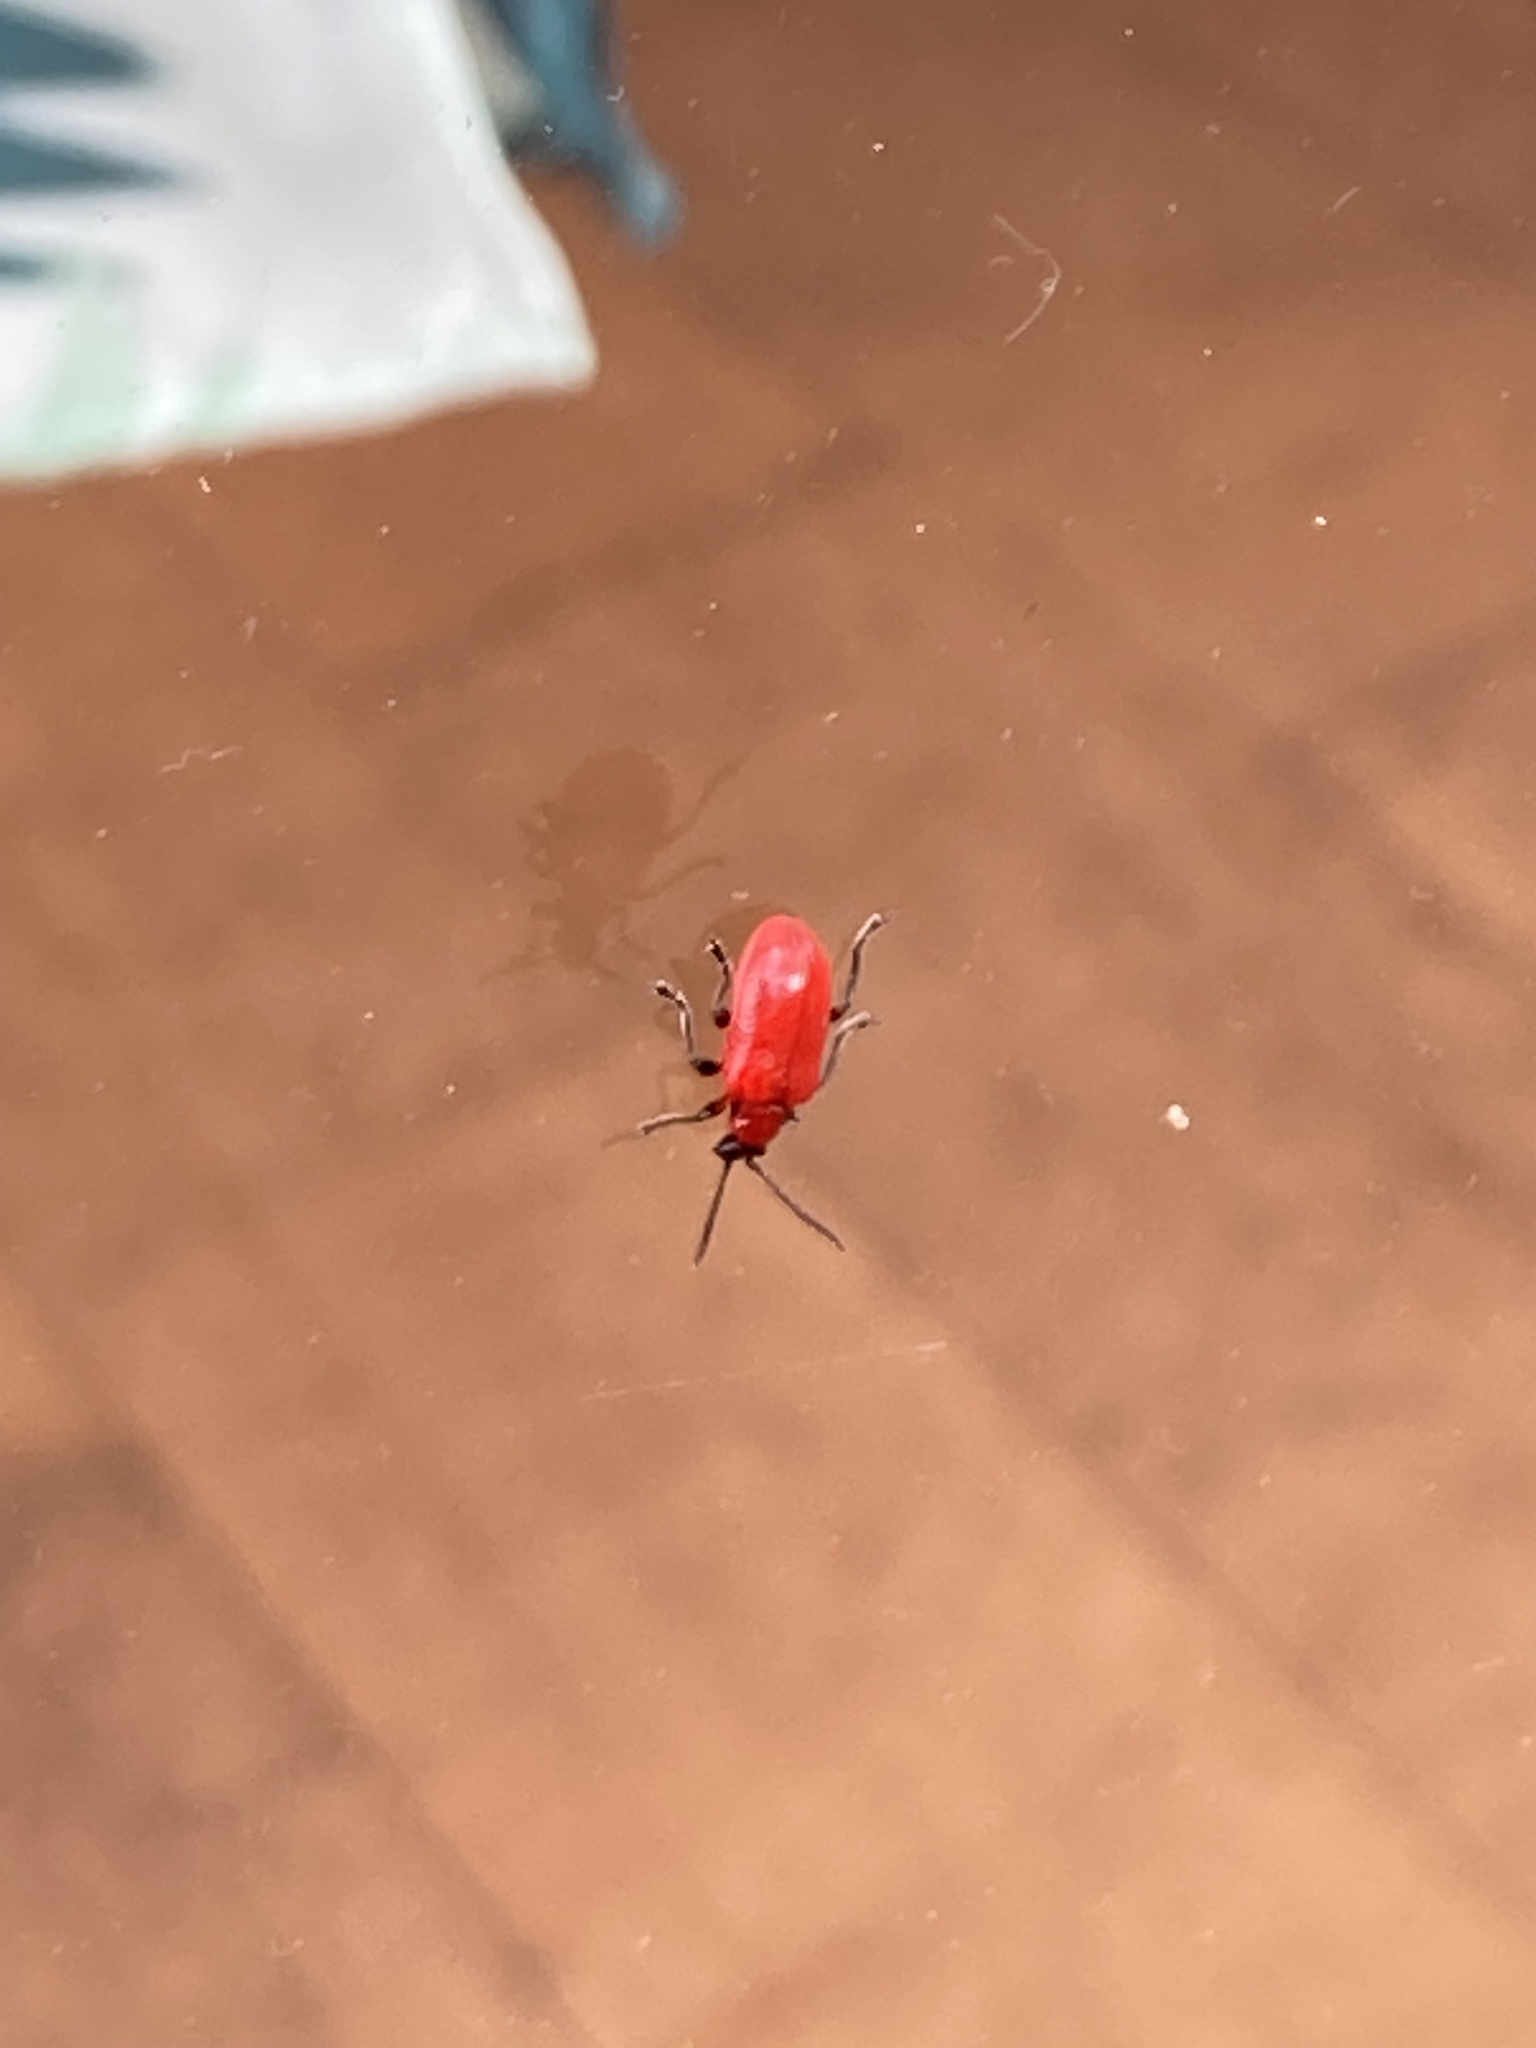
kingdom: Animalia
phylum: Arthropoda
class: Insecta
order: Coleoptera
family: Chrysomelidae
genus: Lilioceris
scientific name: Lilioceris lilii
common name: Lily beetle
